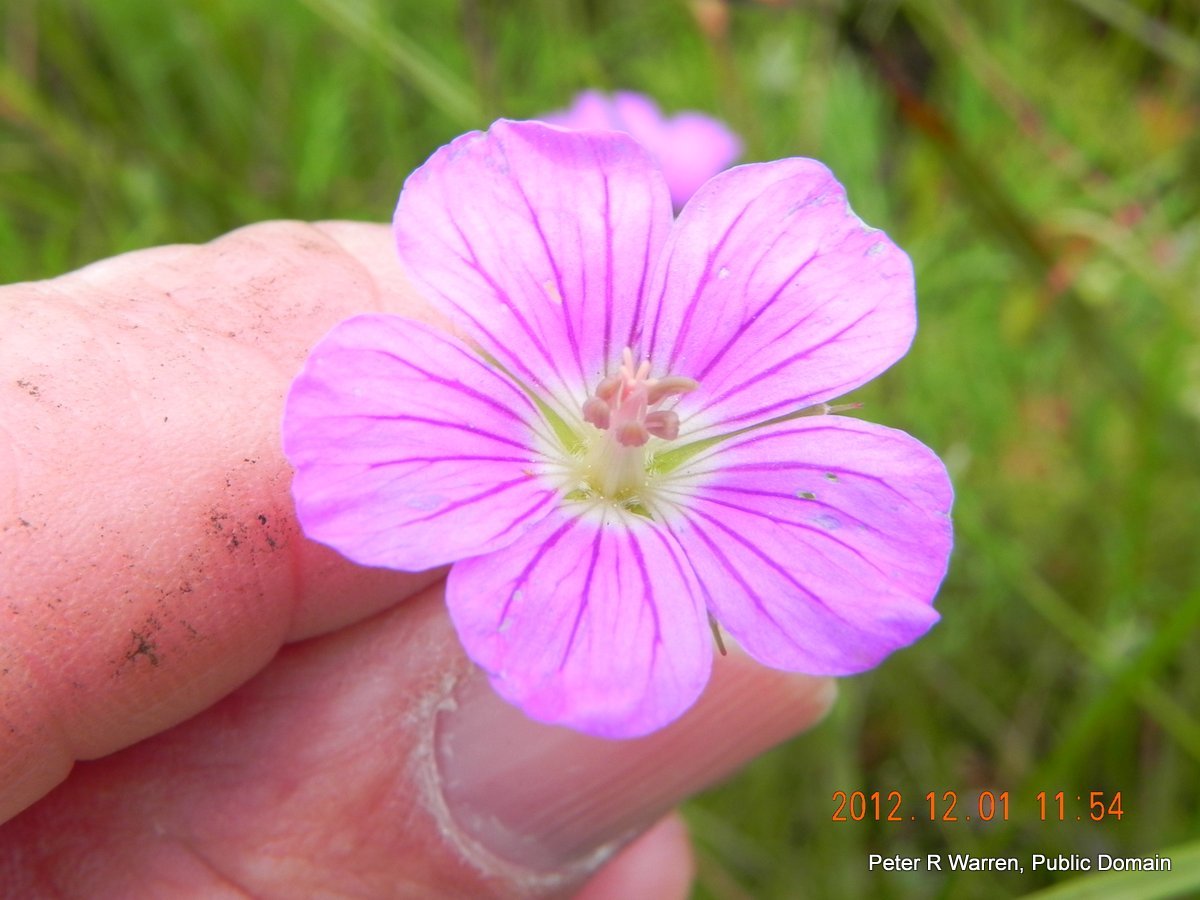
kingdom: Plantae
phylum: Tracheophyta
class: Magnoliopsida
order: Geraniales
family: Geraniaceae
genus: Geranium
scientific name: Geranium multisectum
